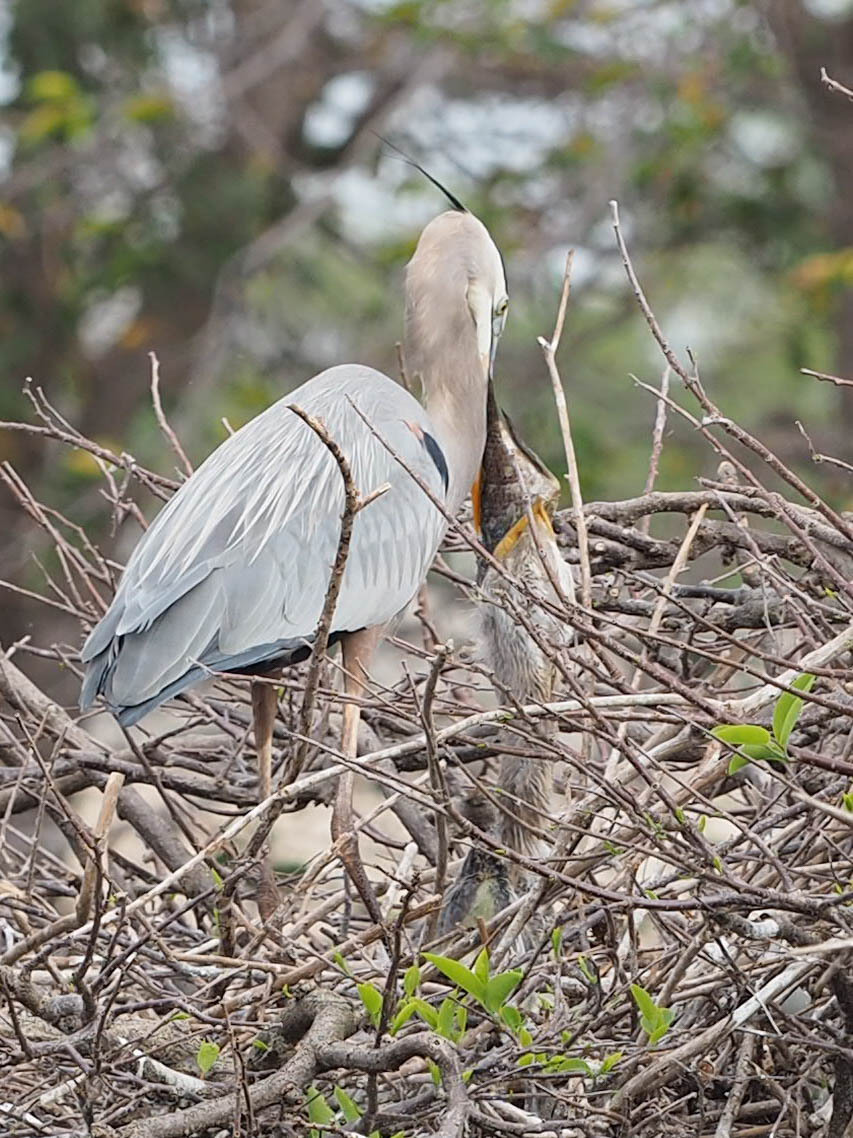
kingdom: Animalia
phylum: Chordata
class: Aves
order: Pelecaniformes
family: Ardeidae
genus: Ardea
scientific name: Ardea herodias
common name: Great blue heron
